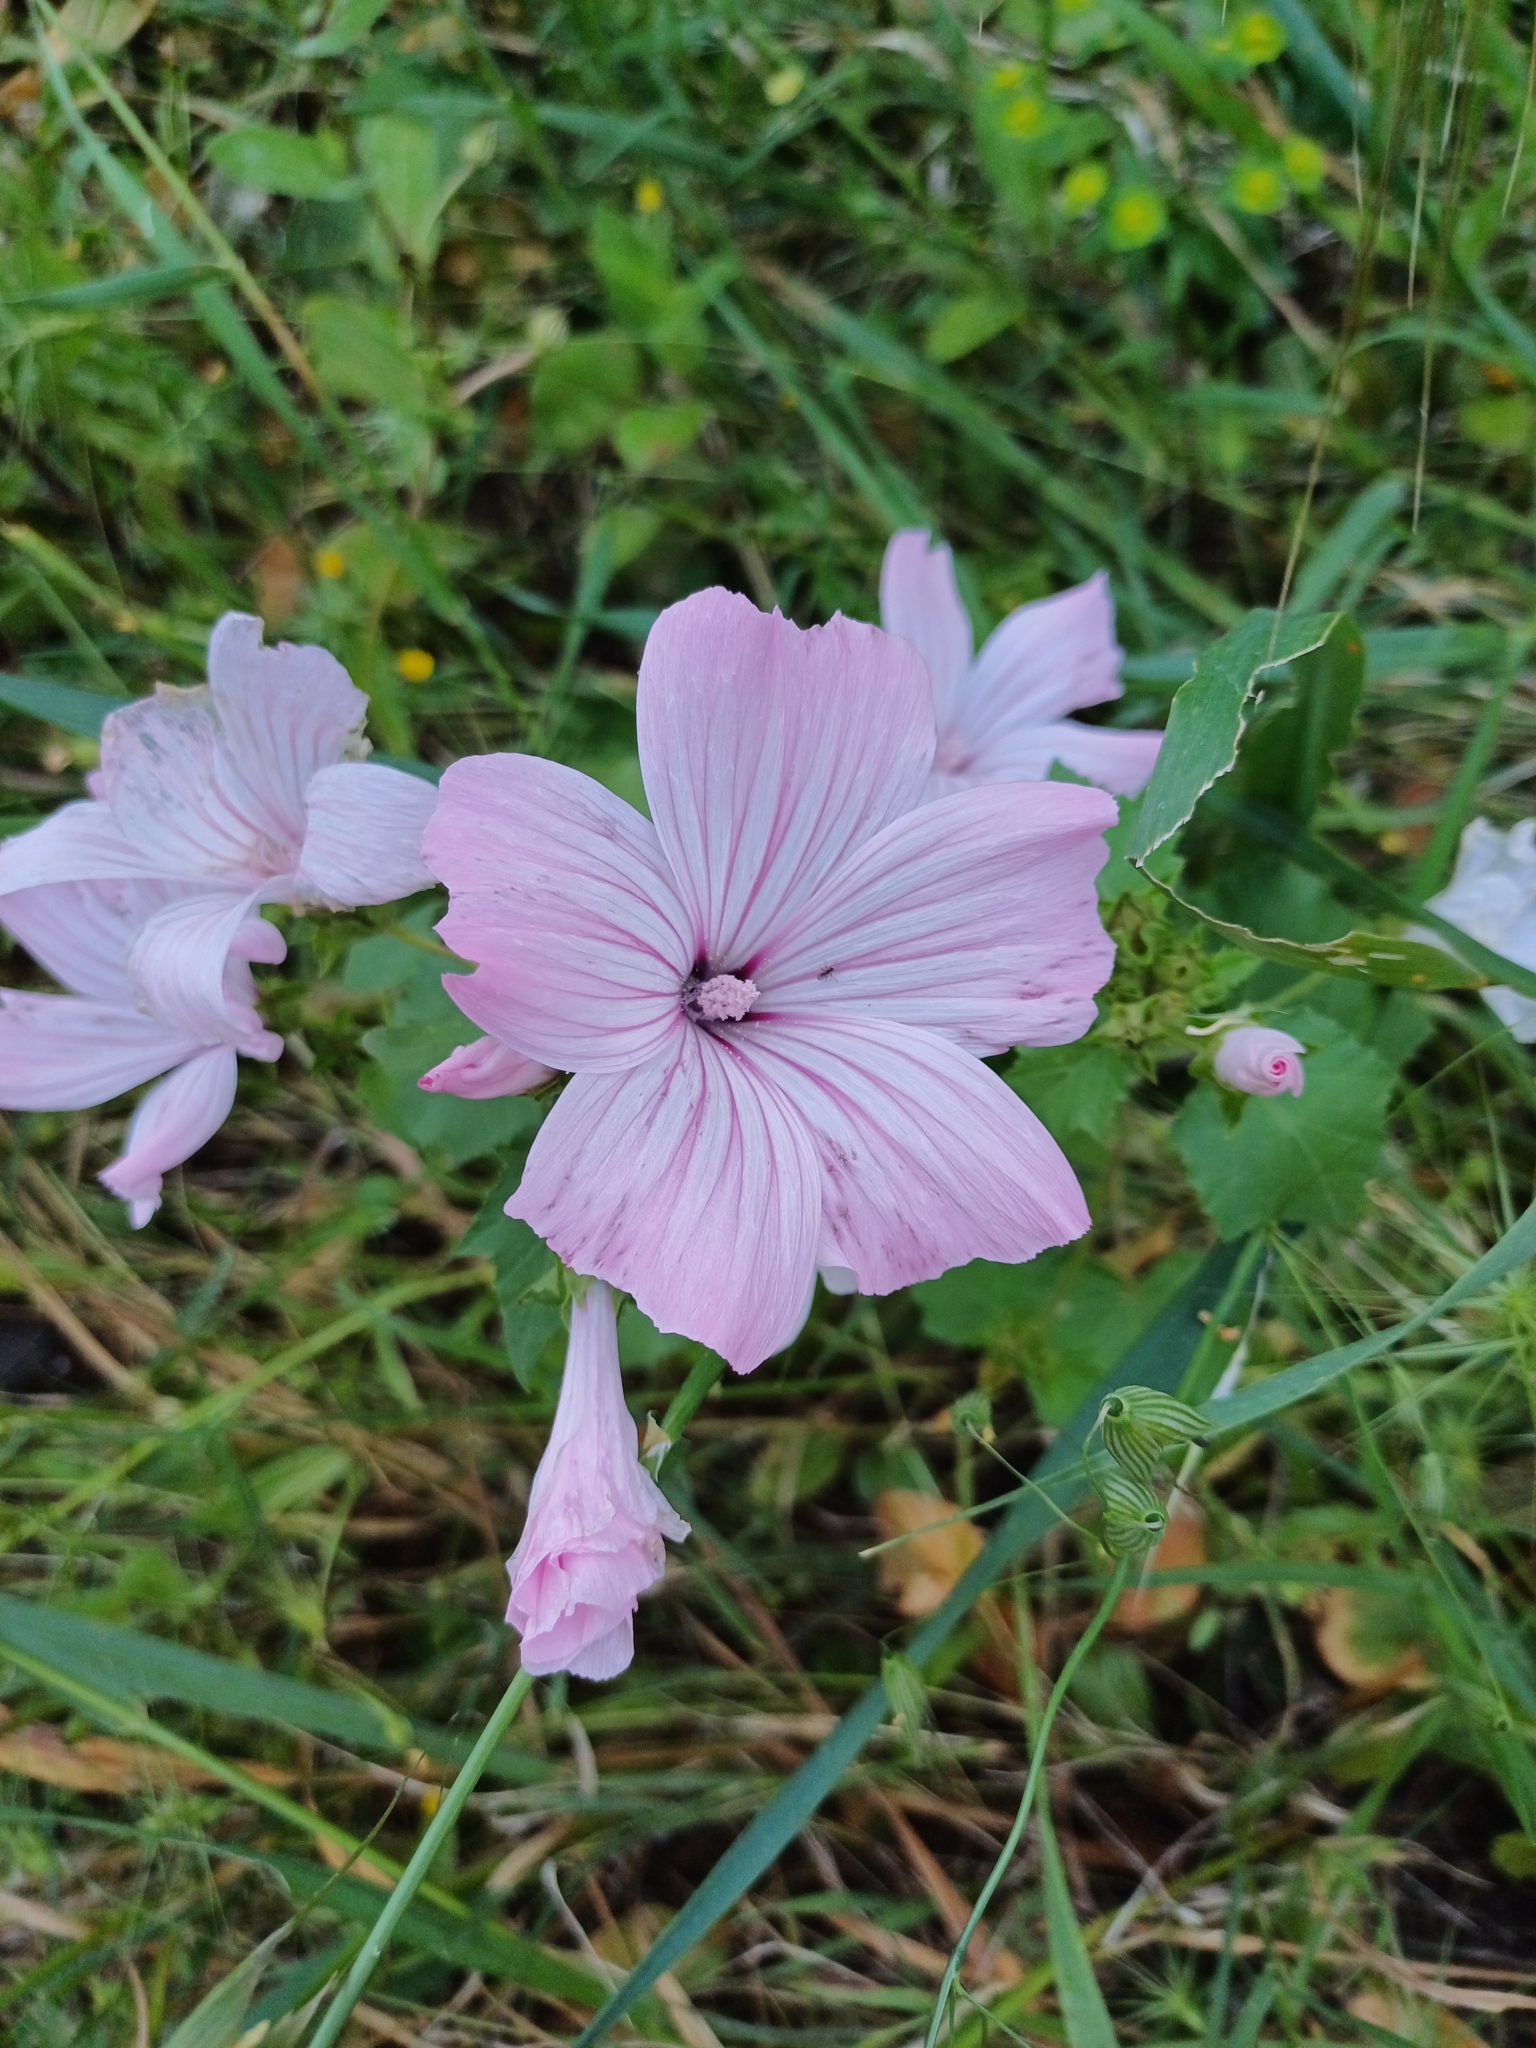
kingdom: Plantae
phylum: Tracheophyta
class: Magnoliopsida
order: Malvales
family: Malvaceae
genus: Malva
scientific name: Malva trimestris
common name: Royal mallow
